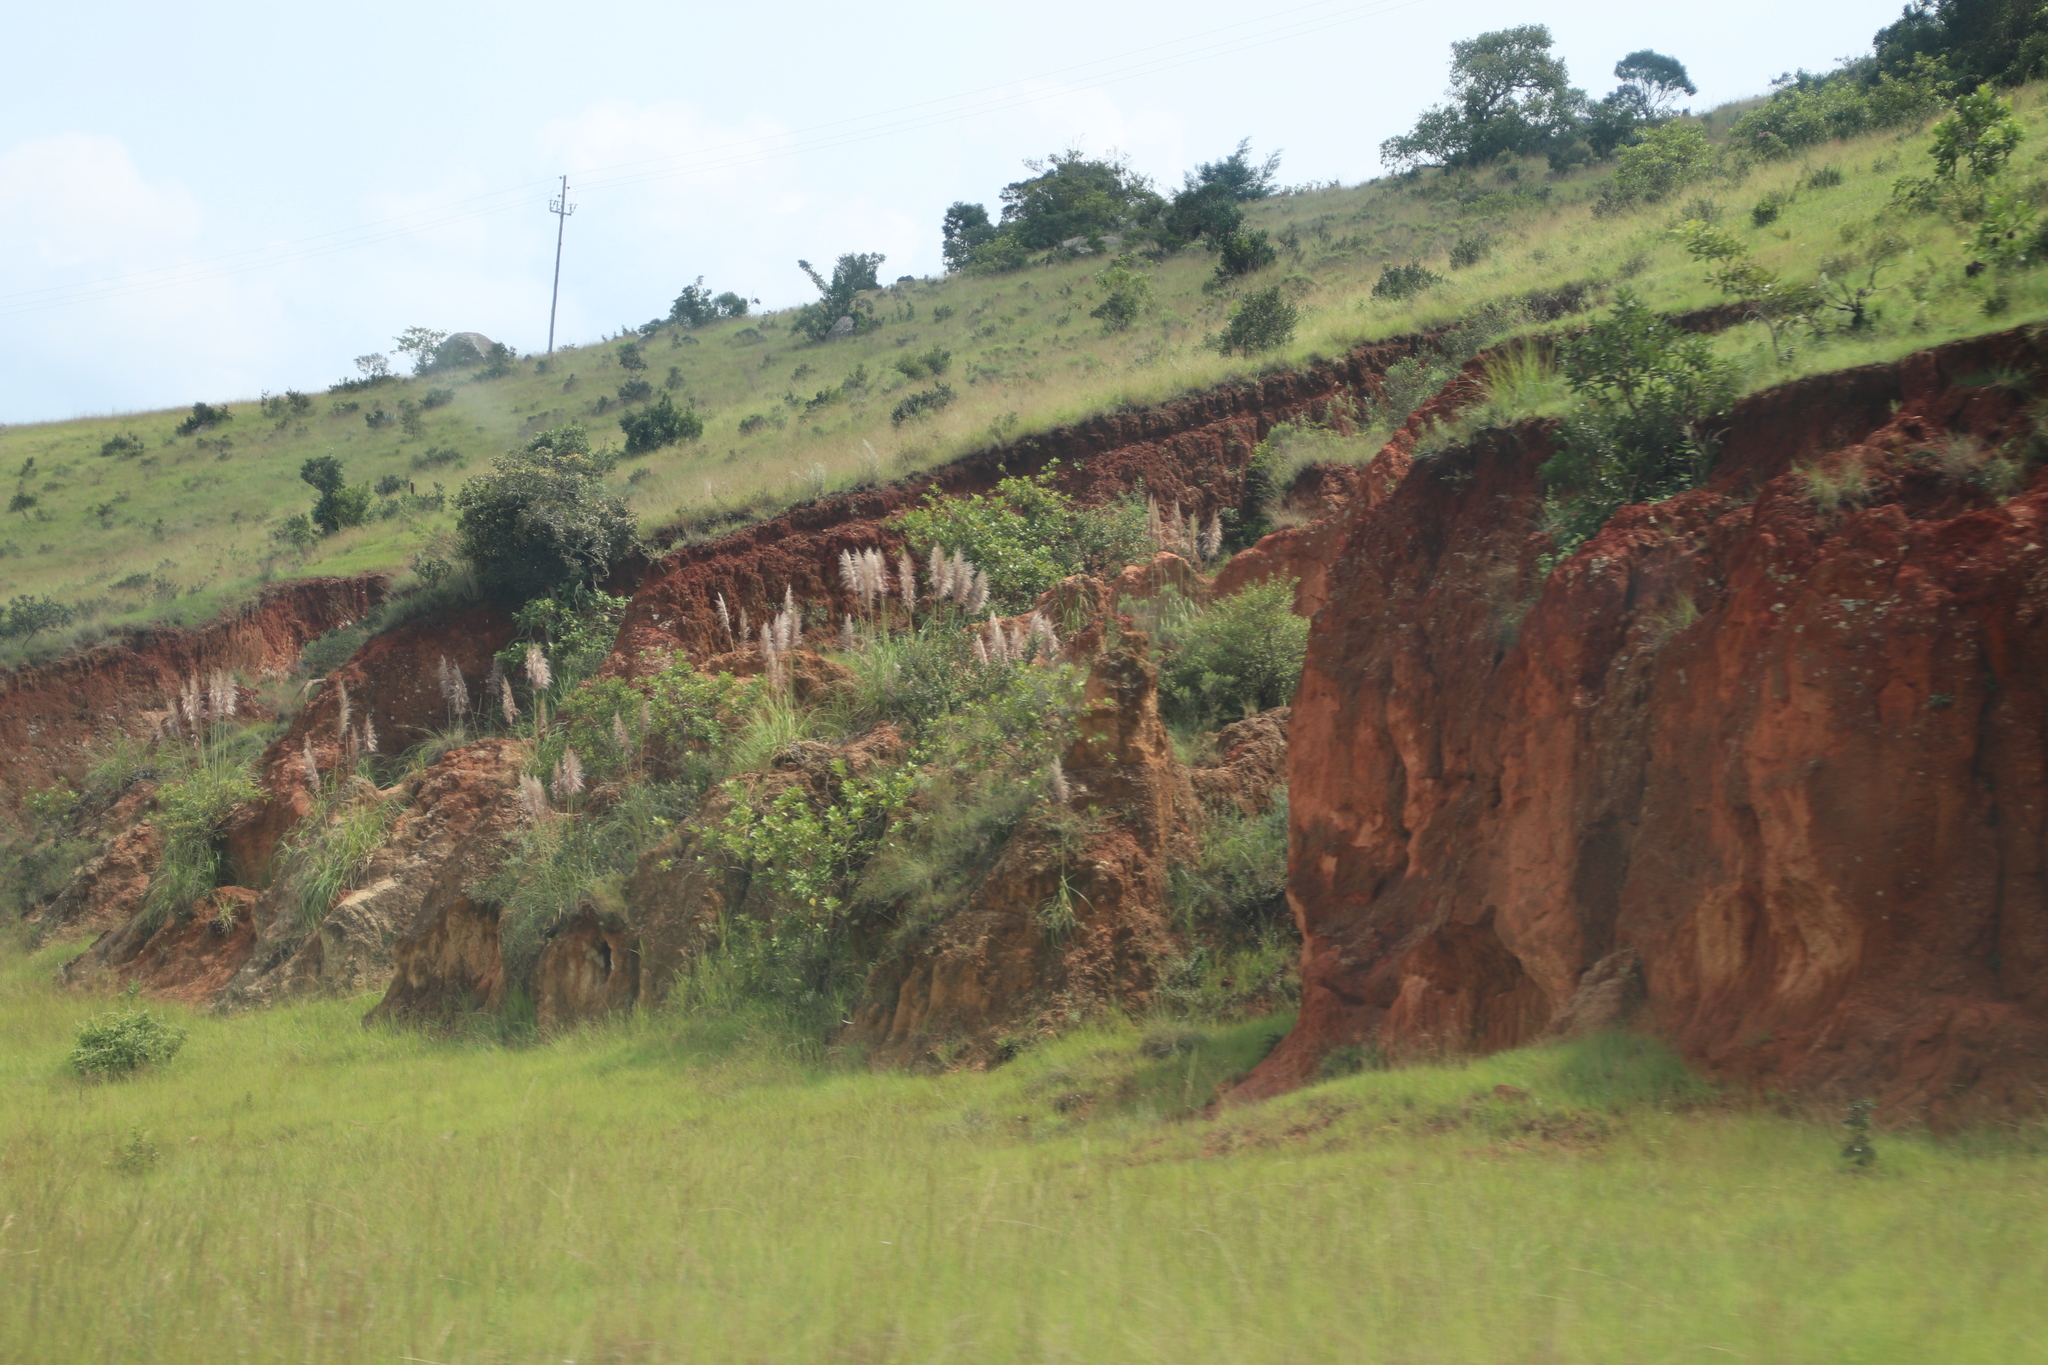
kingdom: Plantae
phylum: Tracheophyta
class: Liliopsida
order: Poales
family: Poaceae
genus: Cortaderia
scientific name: Cortaderia selloana
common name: Uruguayan pampas grass
